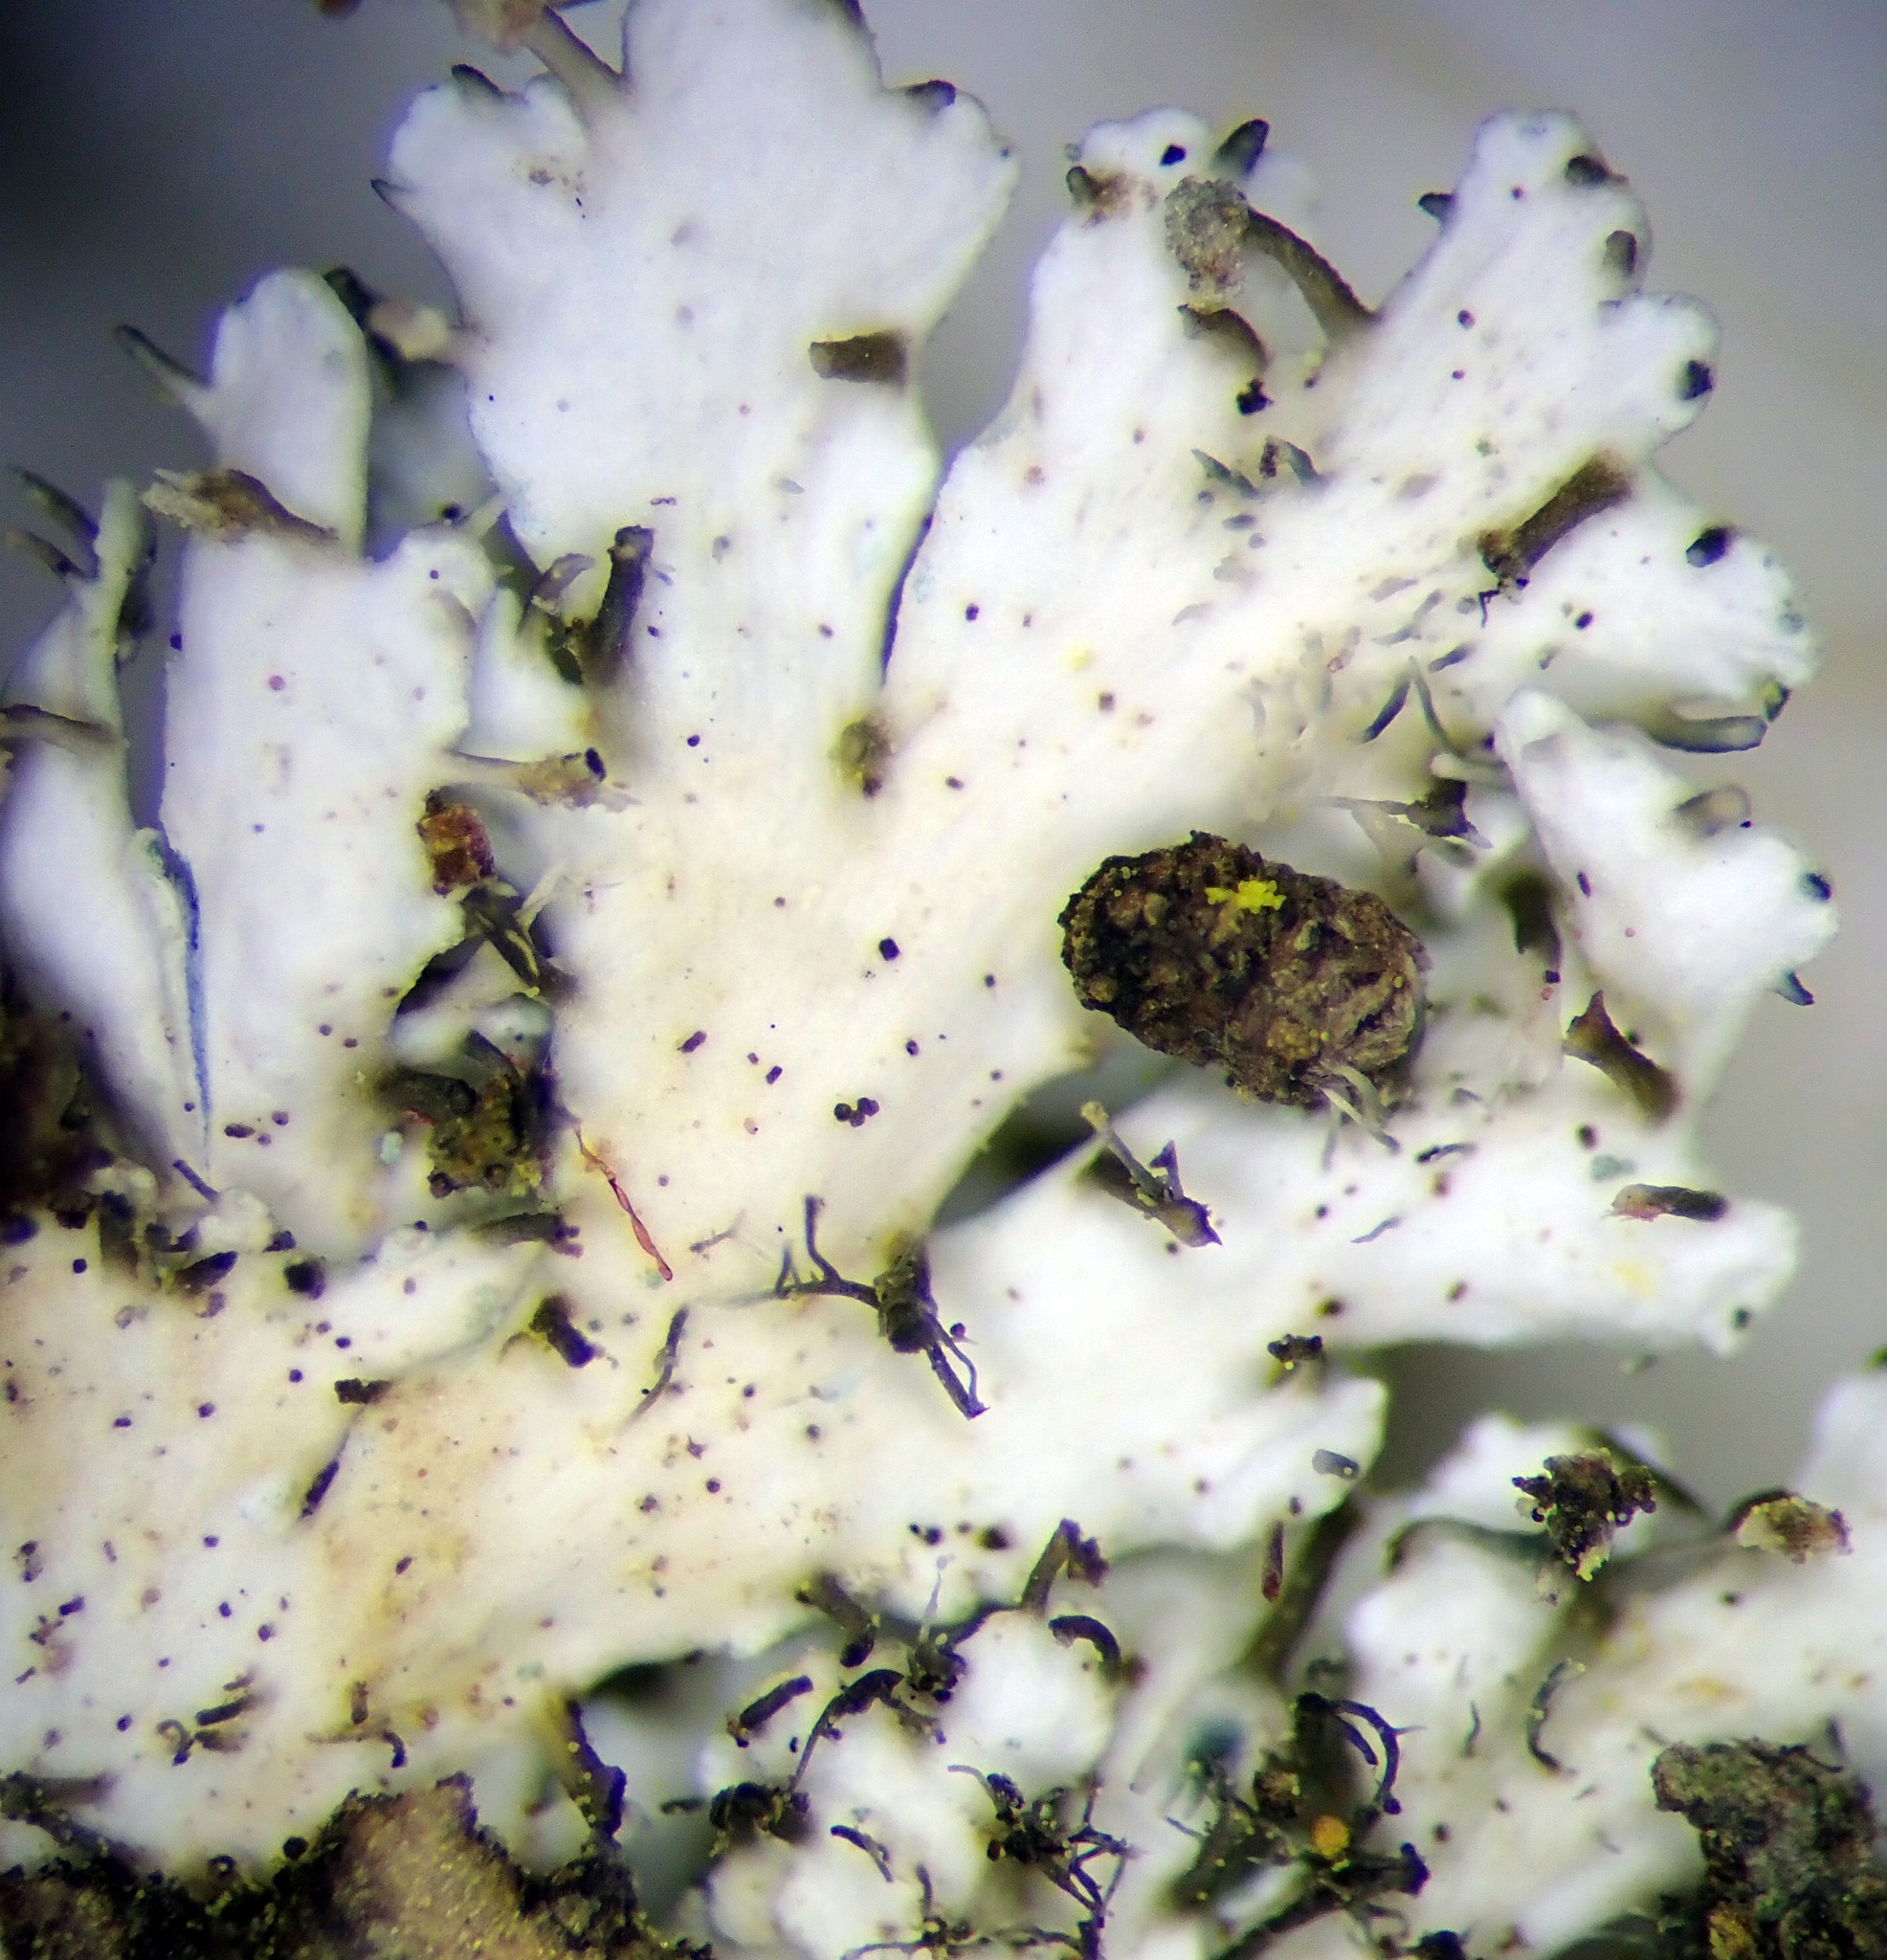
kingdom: Fungi
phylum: Ascomycota
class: Lecanoromycetes
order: Caliciales
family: Physciaceae
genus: Heterodermia
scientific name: Heterodermia speciosa
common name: Powdered fringe lichen
